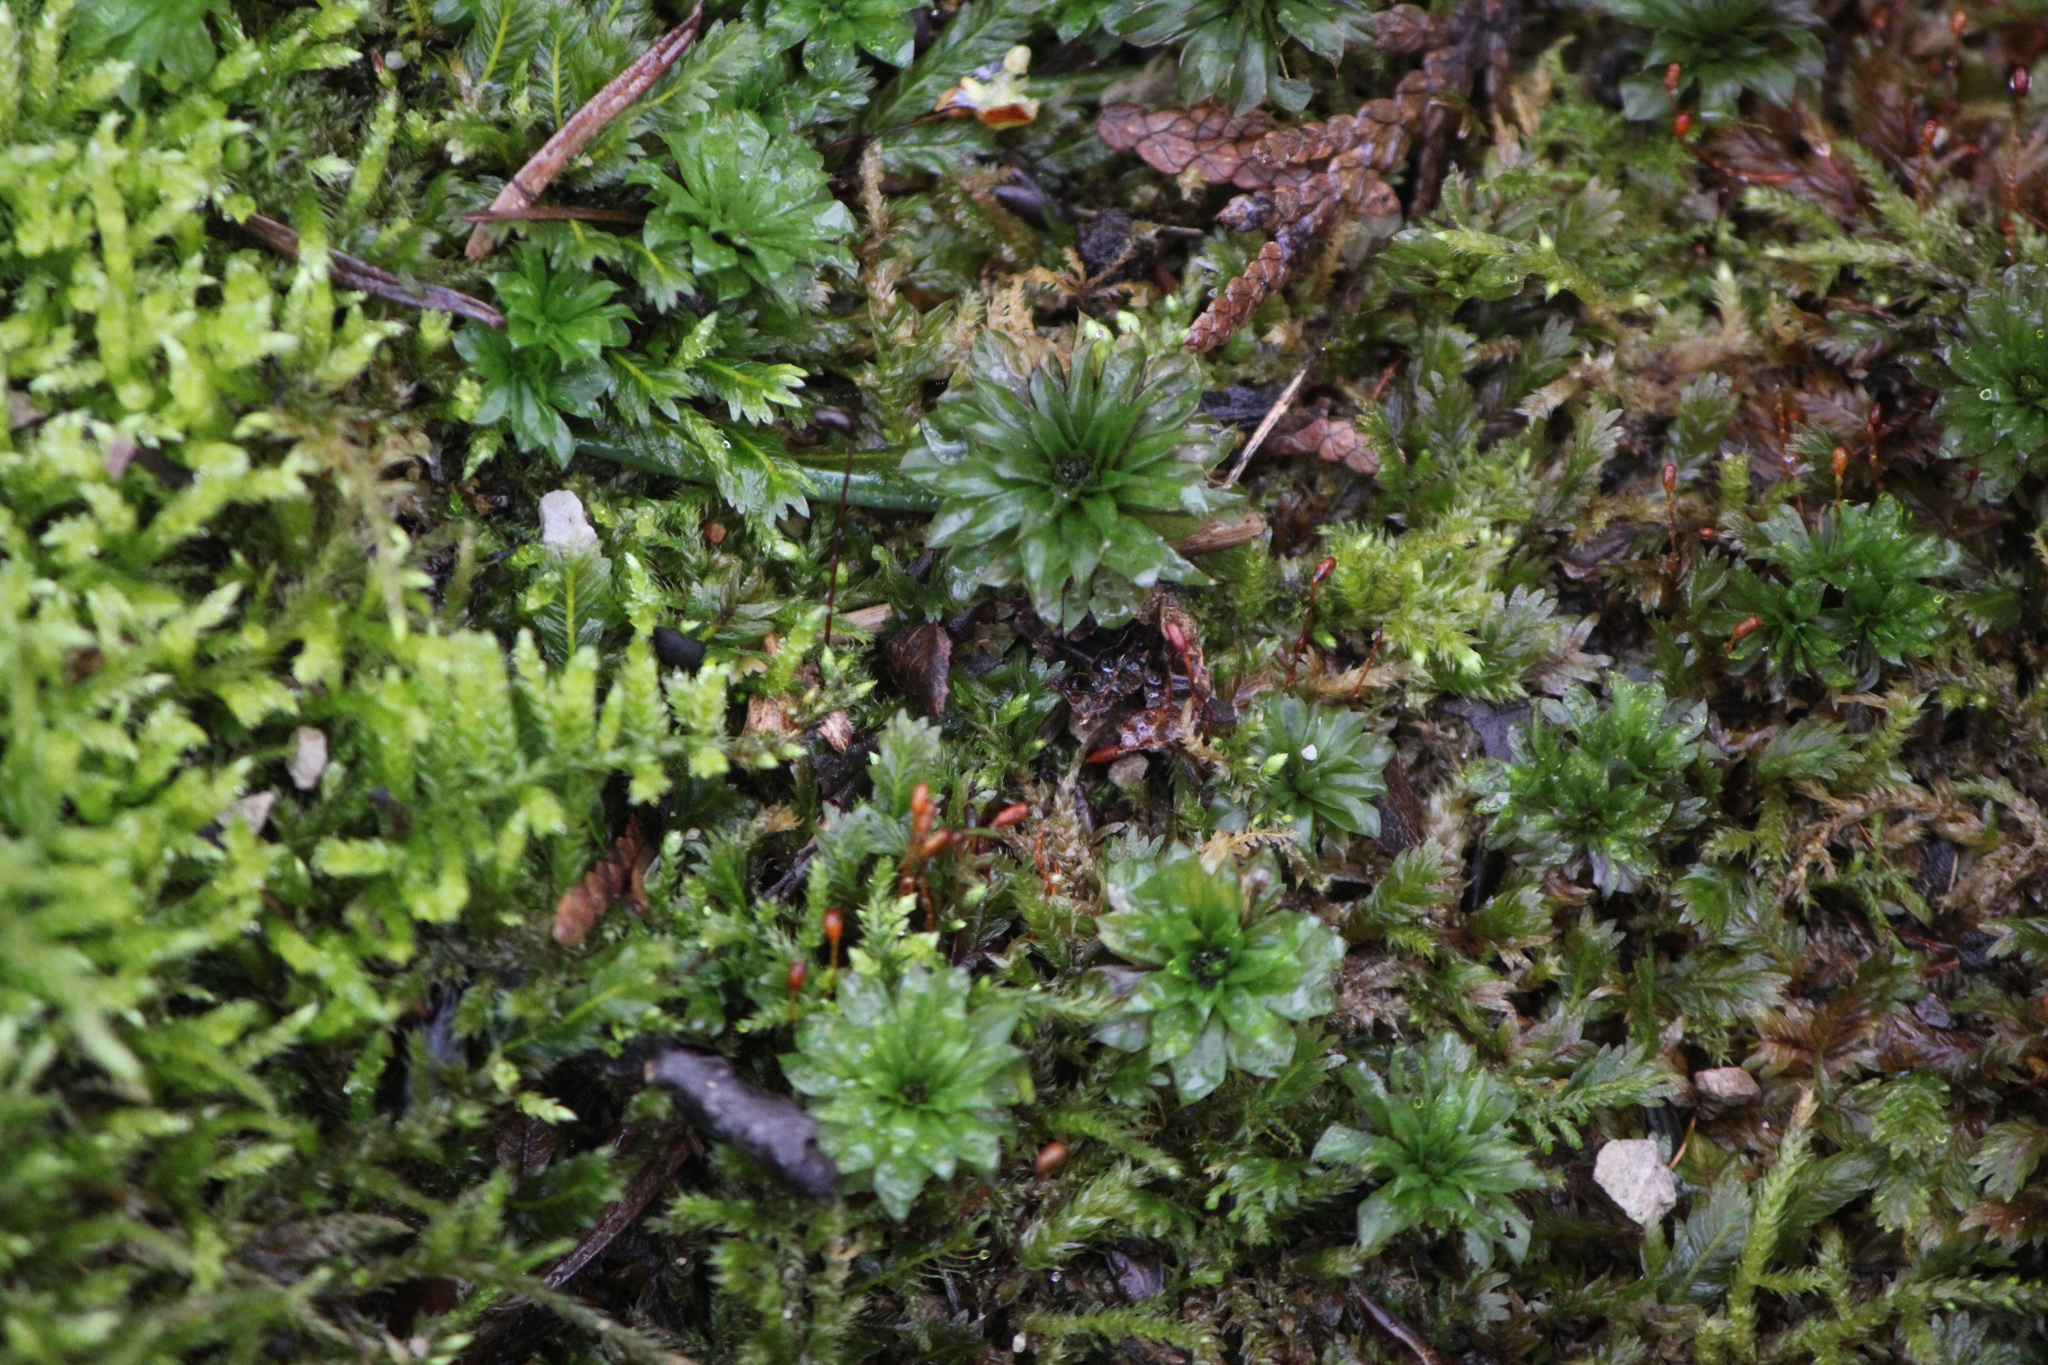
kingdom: Plantae
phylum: Bryophyta
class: Bryopsida
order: Bryales
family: Bryaceae
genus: Rhodobryum
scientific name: Rhodobryum ontariense
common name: Ontario rhodobryum moss
